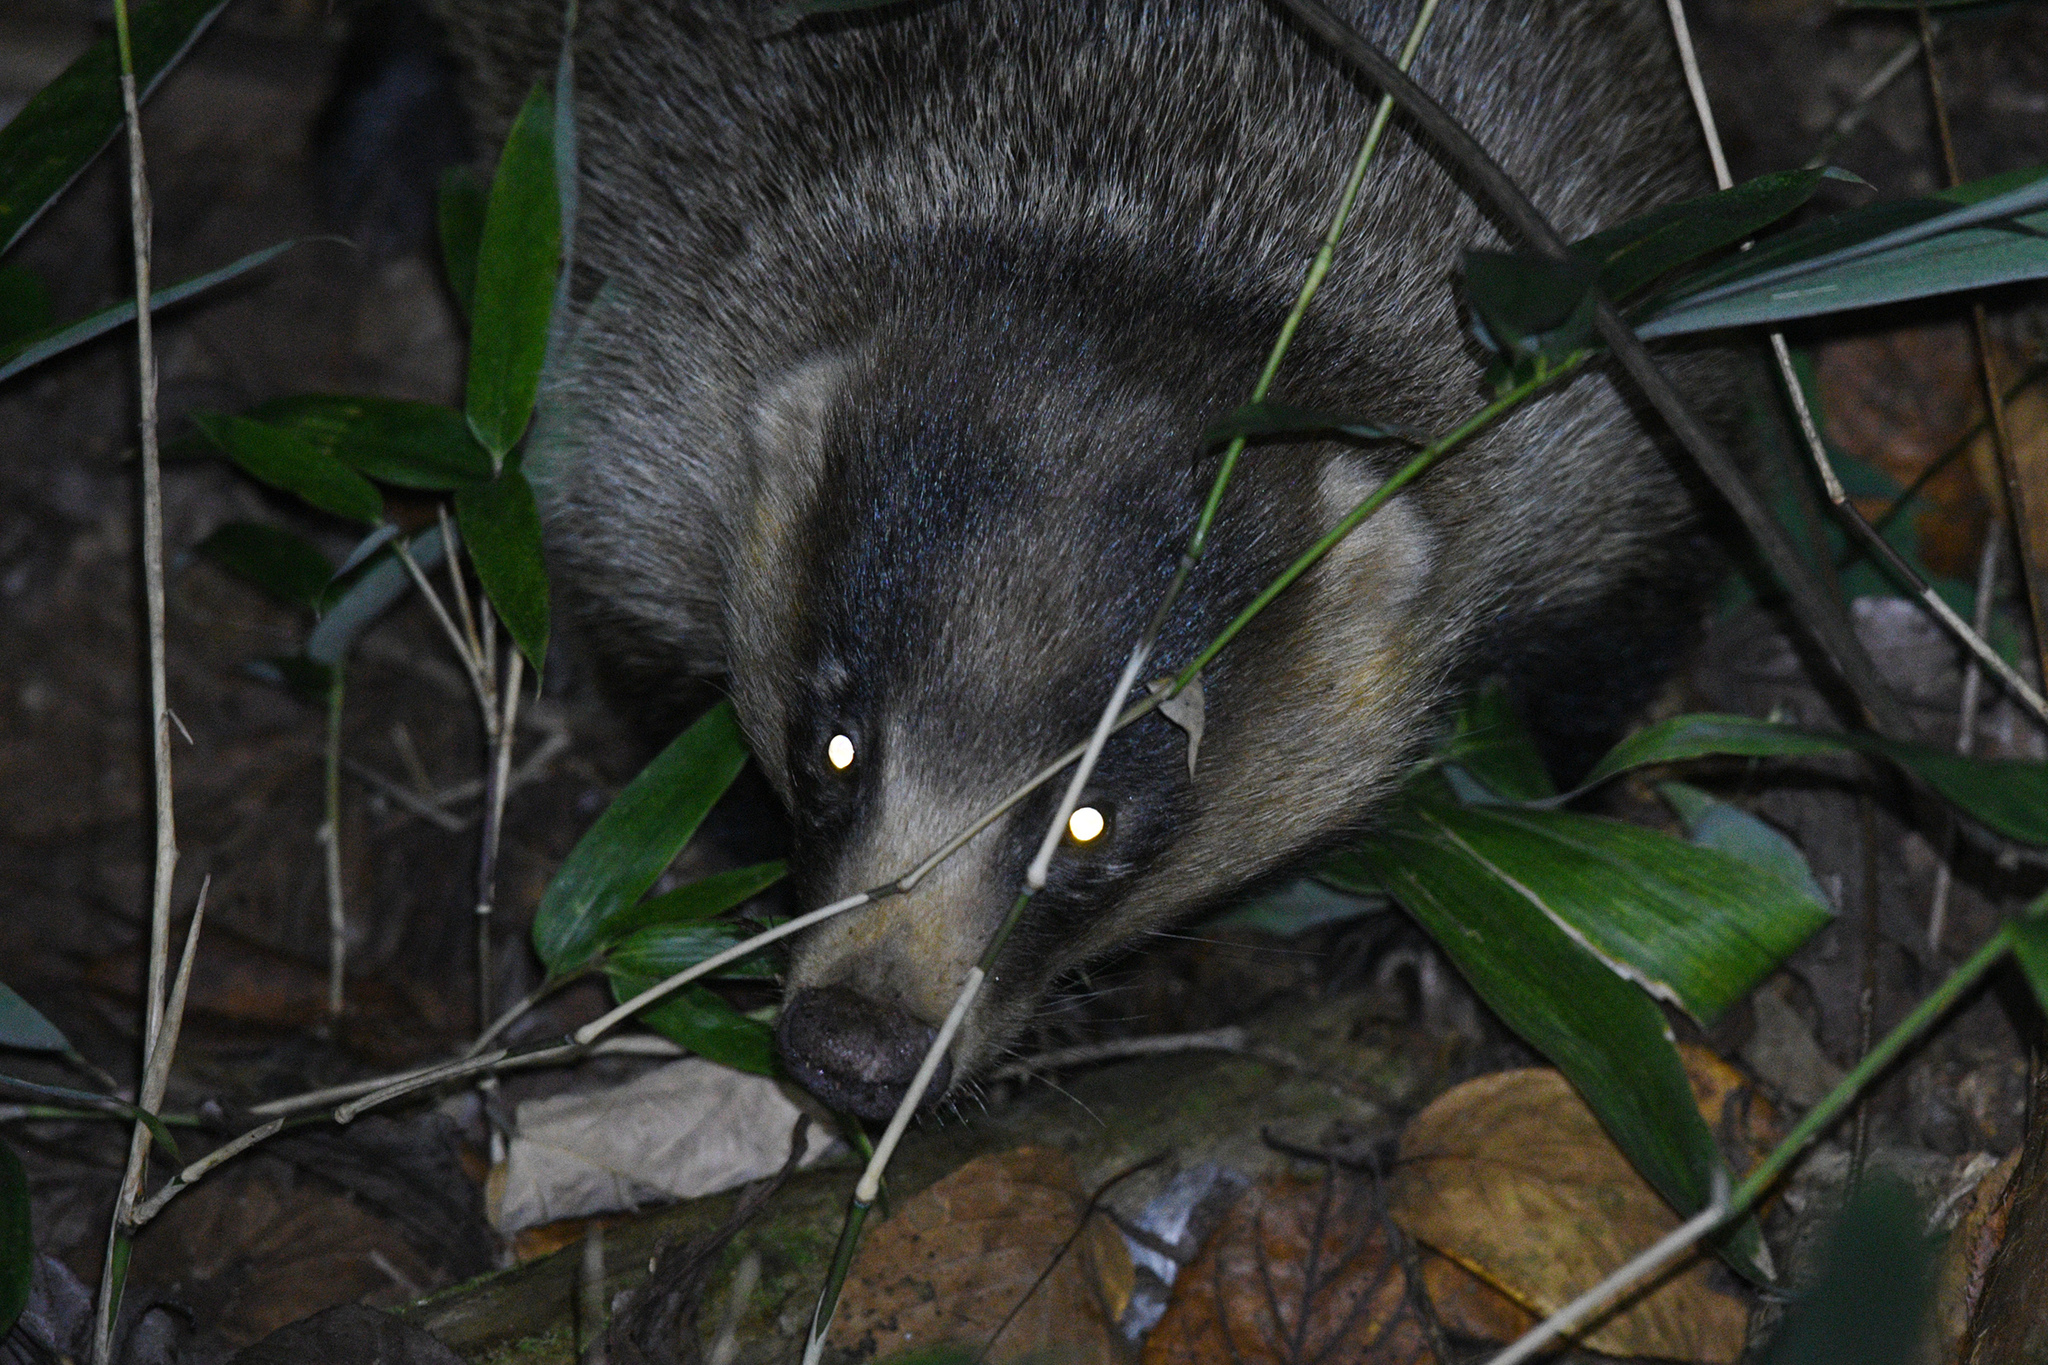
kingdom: Animalia
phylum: Chordata
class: Mammalia
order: Carnivora
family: Mustelidae
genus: Meles
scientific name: Meles anakuma
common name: Japanese badger
